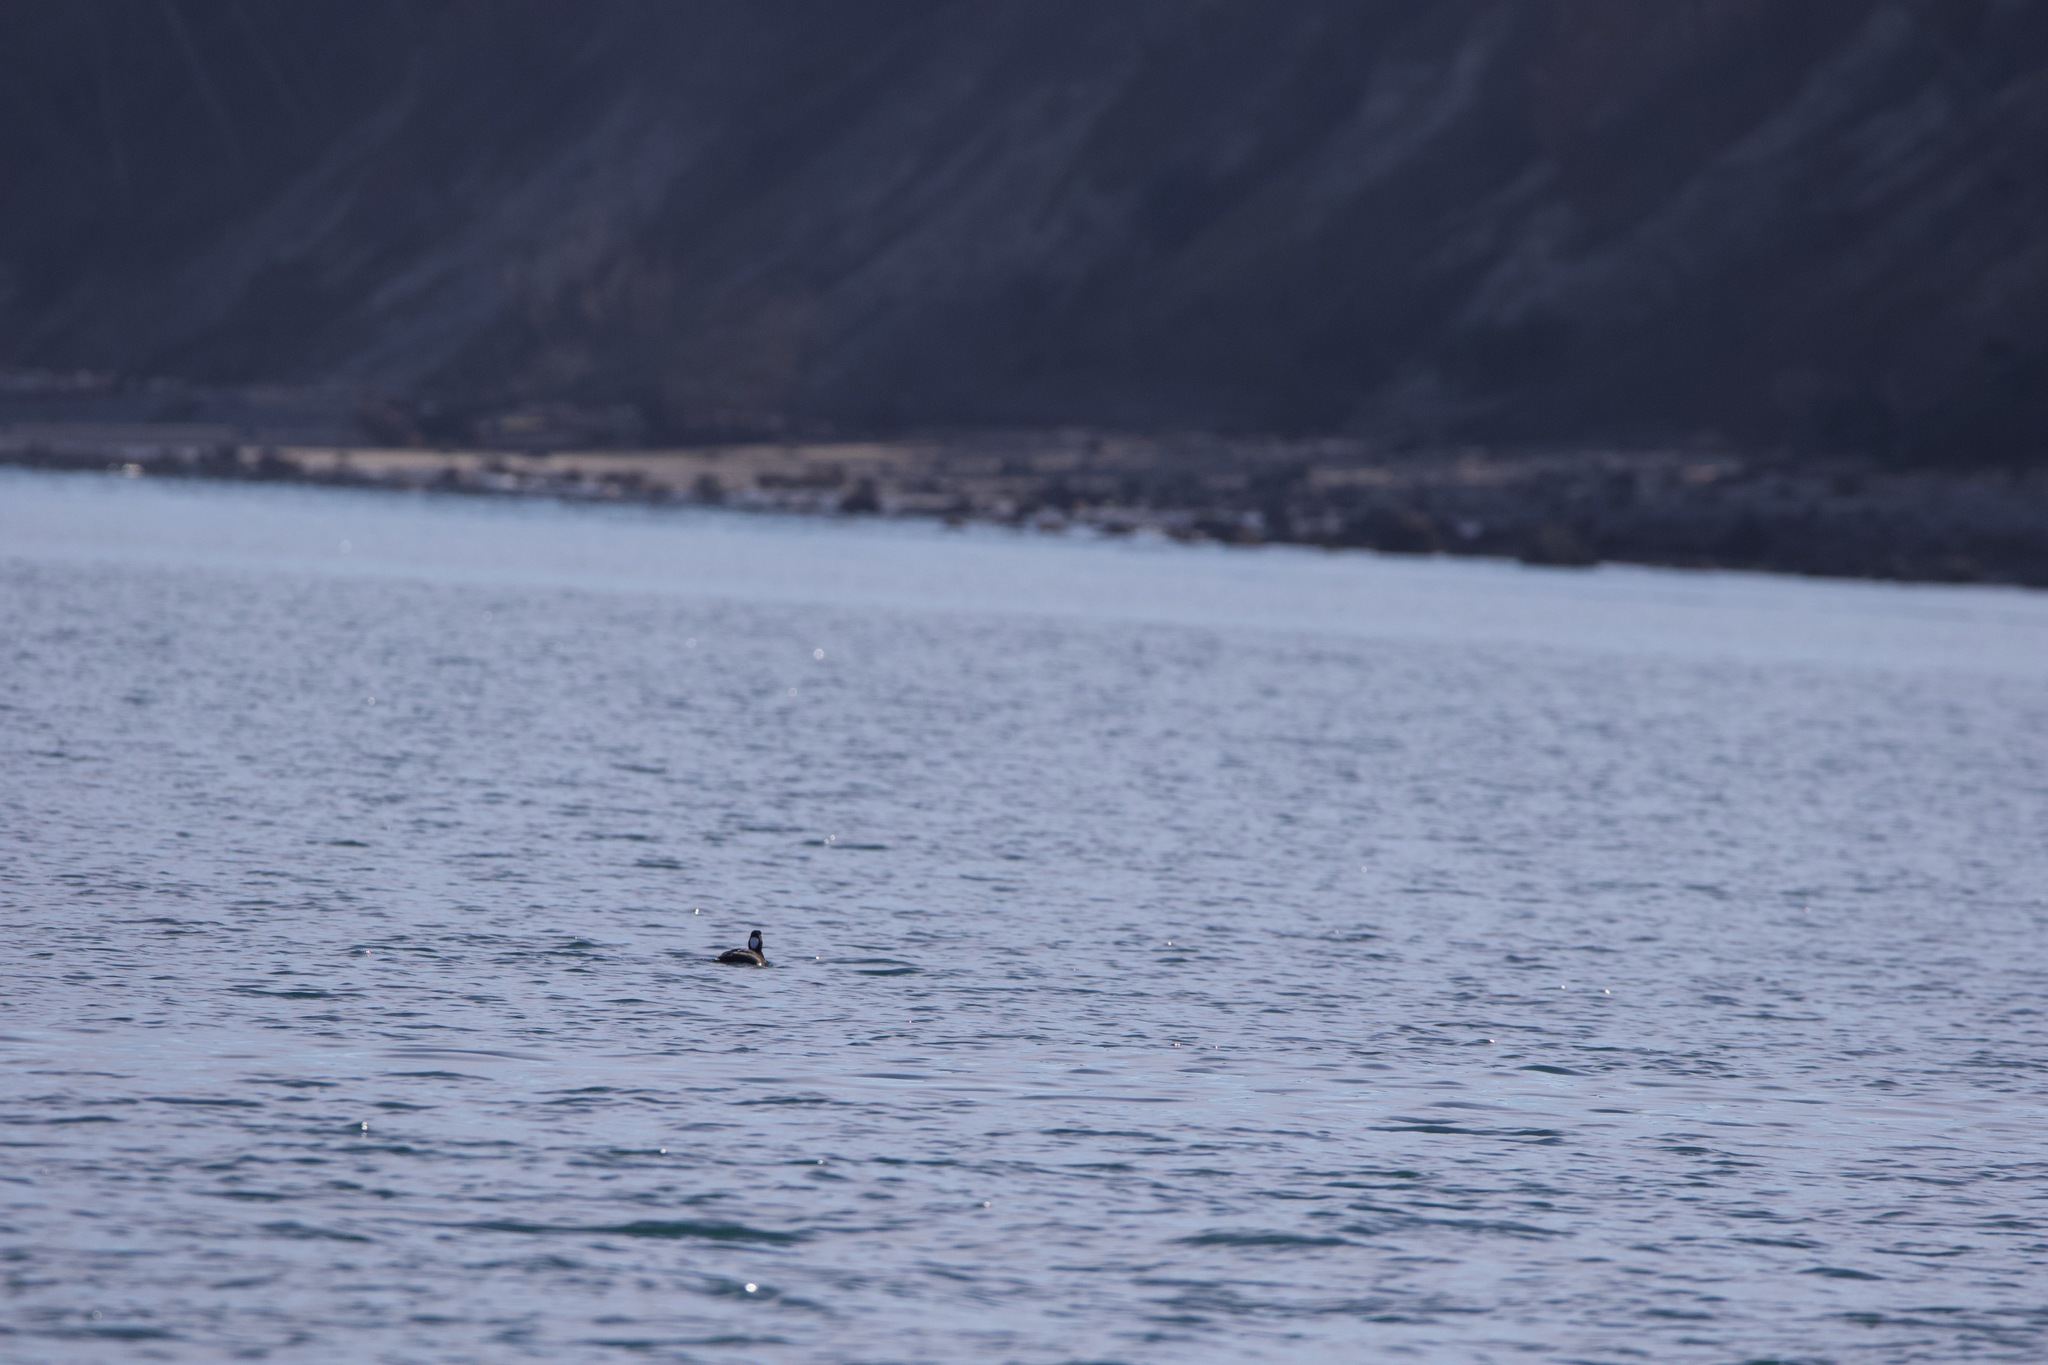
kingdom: Animalia
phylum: Chordata
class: Aves
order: Anseriformes
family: Anatidae
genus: Melanitta
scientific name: Melanitta perspicillata
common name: Surf scoter
